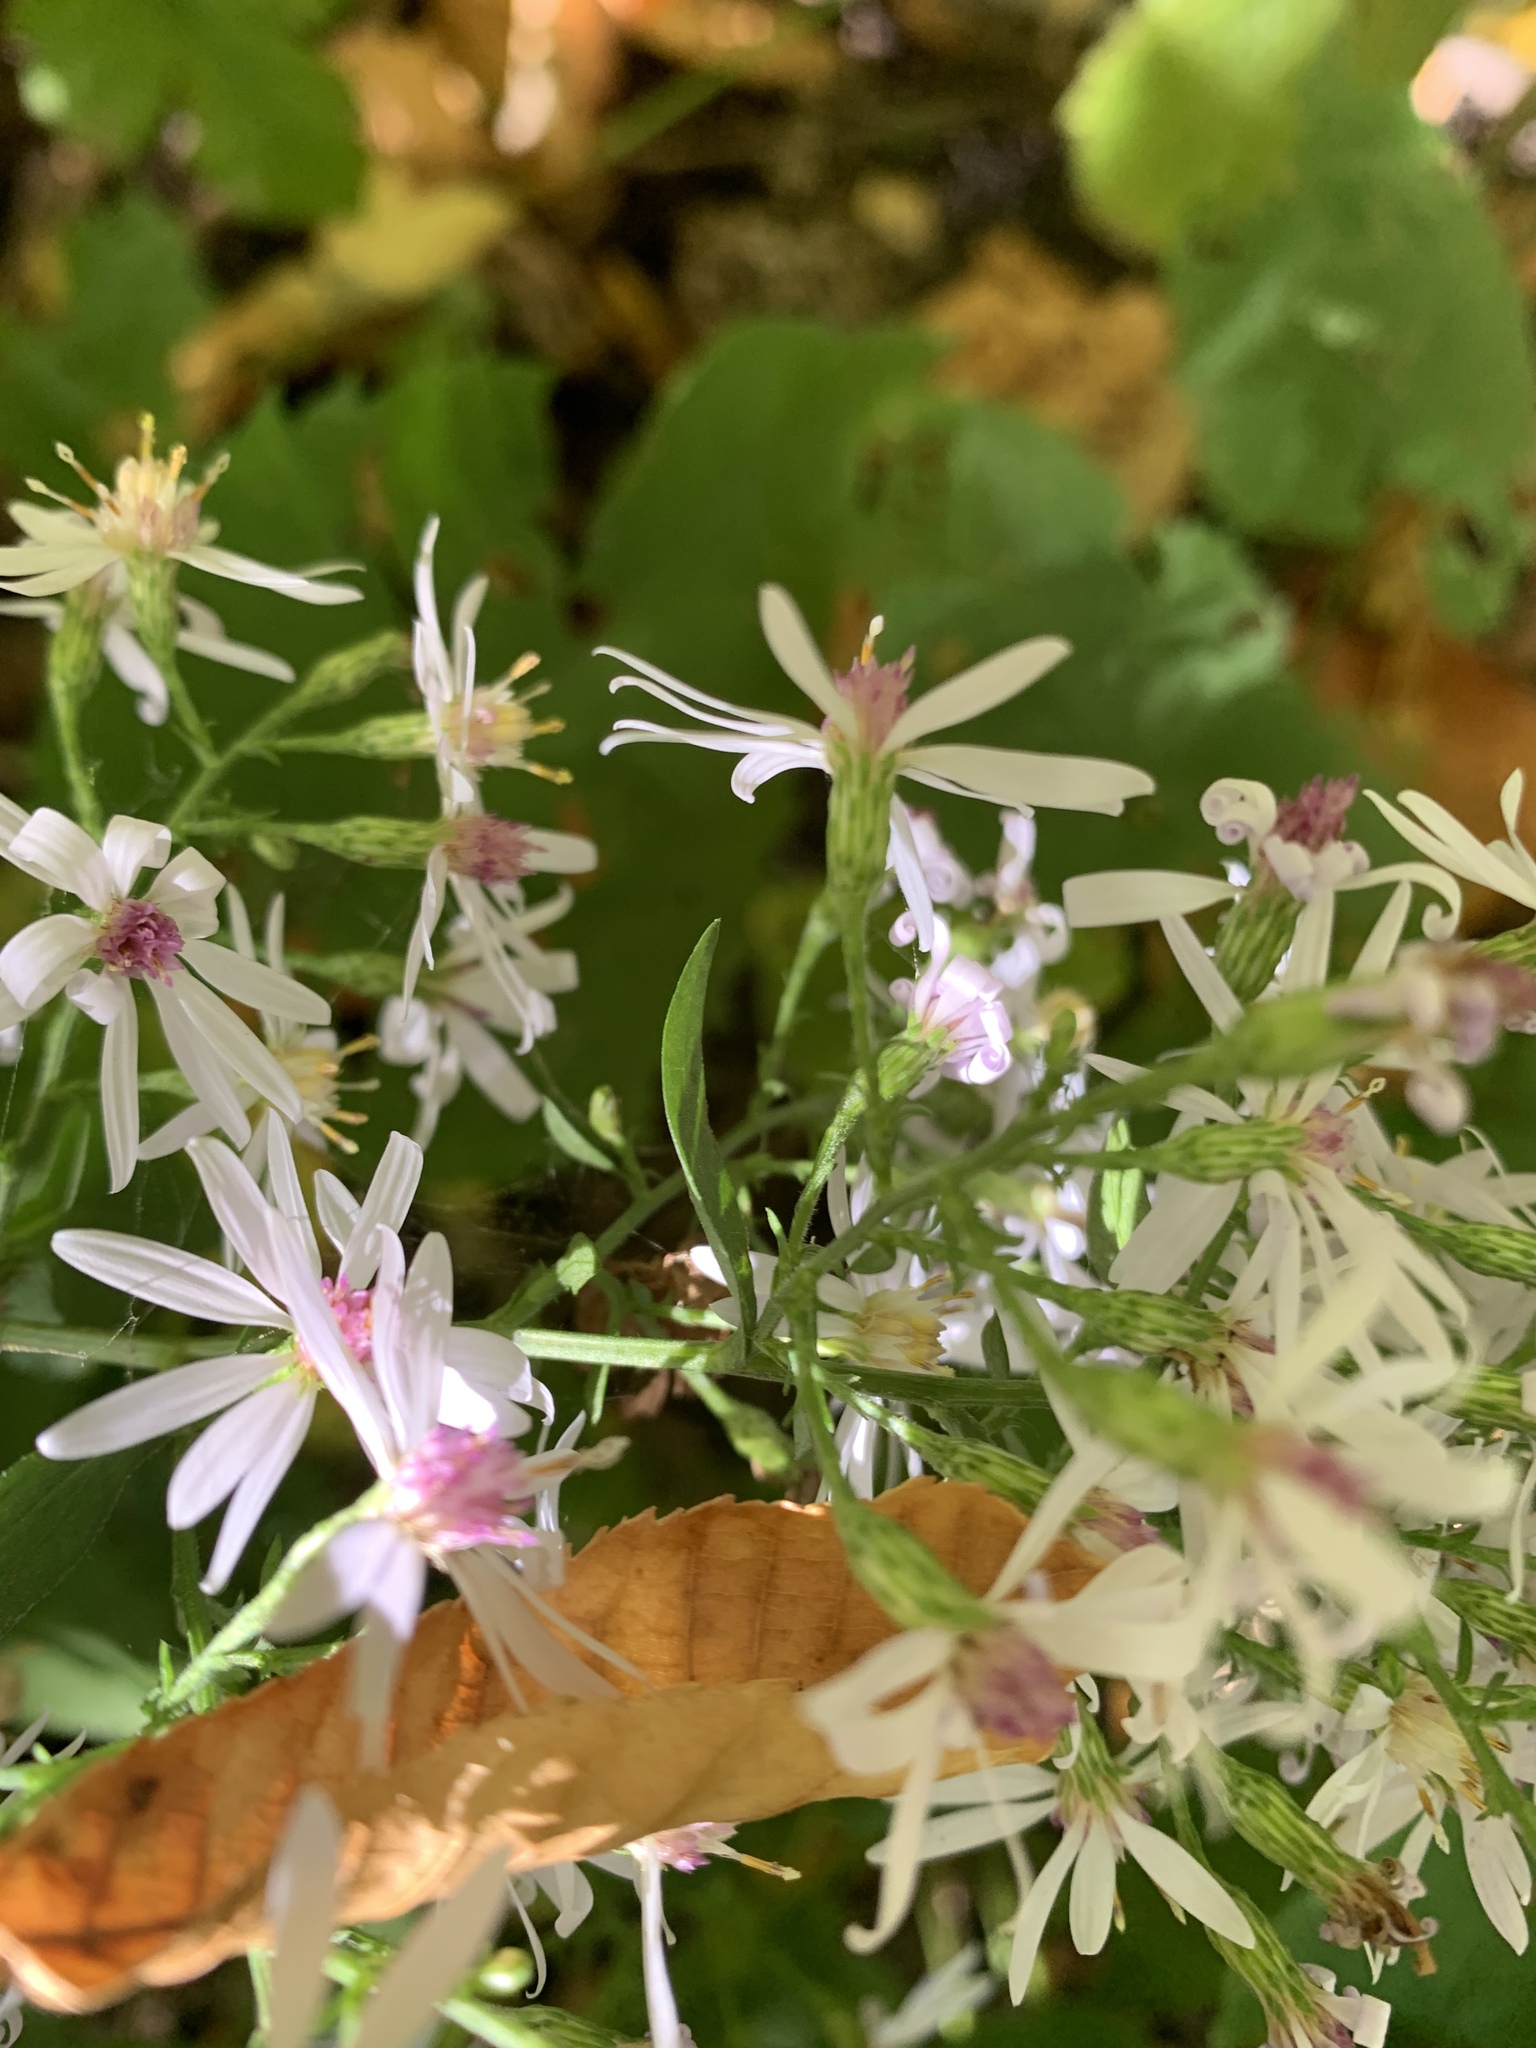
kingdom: Plantae
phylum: Tracheophyta
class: Magnoliopsida
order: Asterales
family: Asteraceae
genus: Symphyotrichum
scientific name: Symphyotrichum cordifolium
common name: Beeweed
